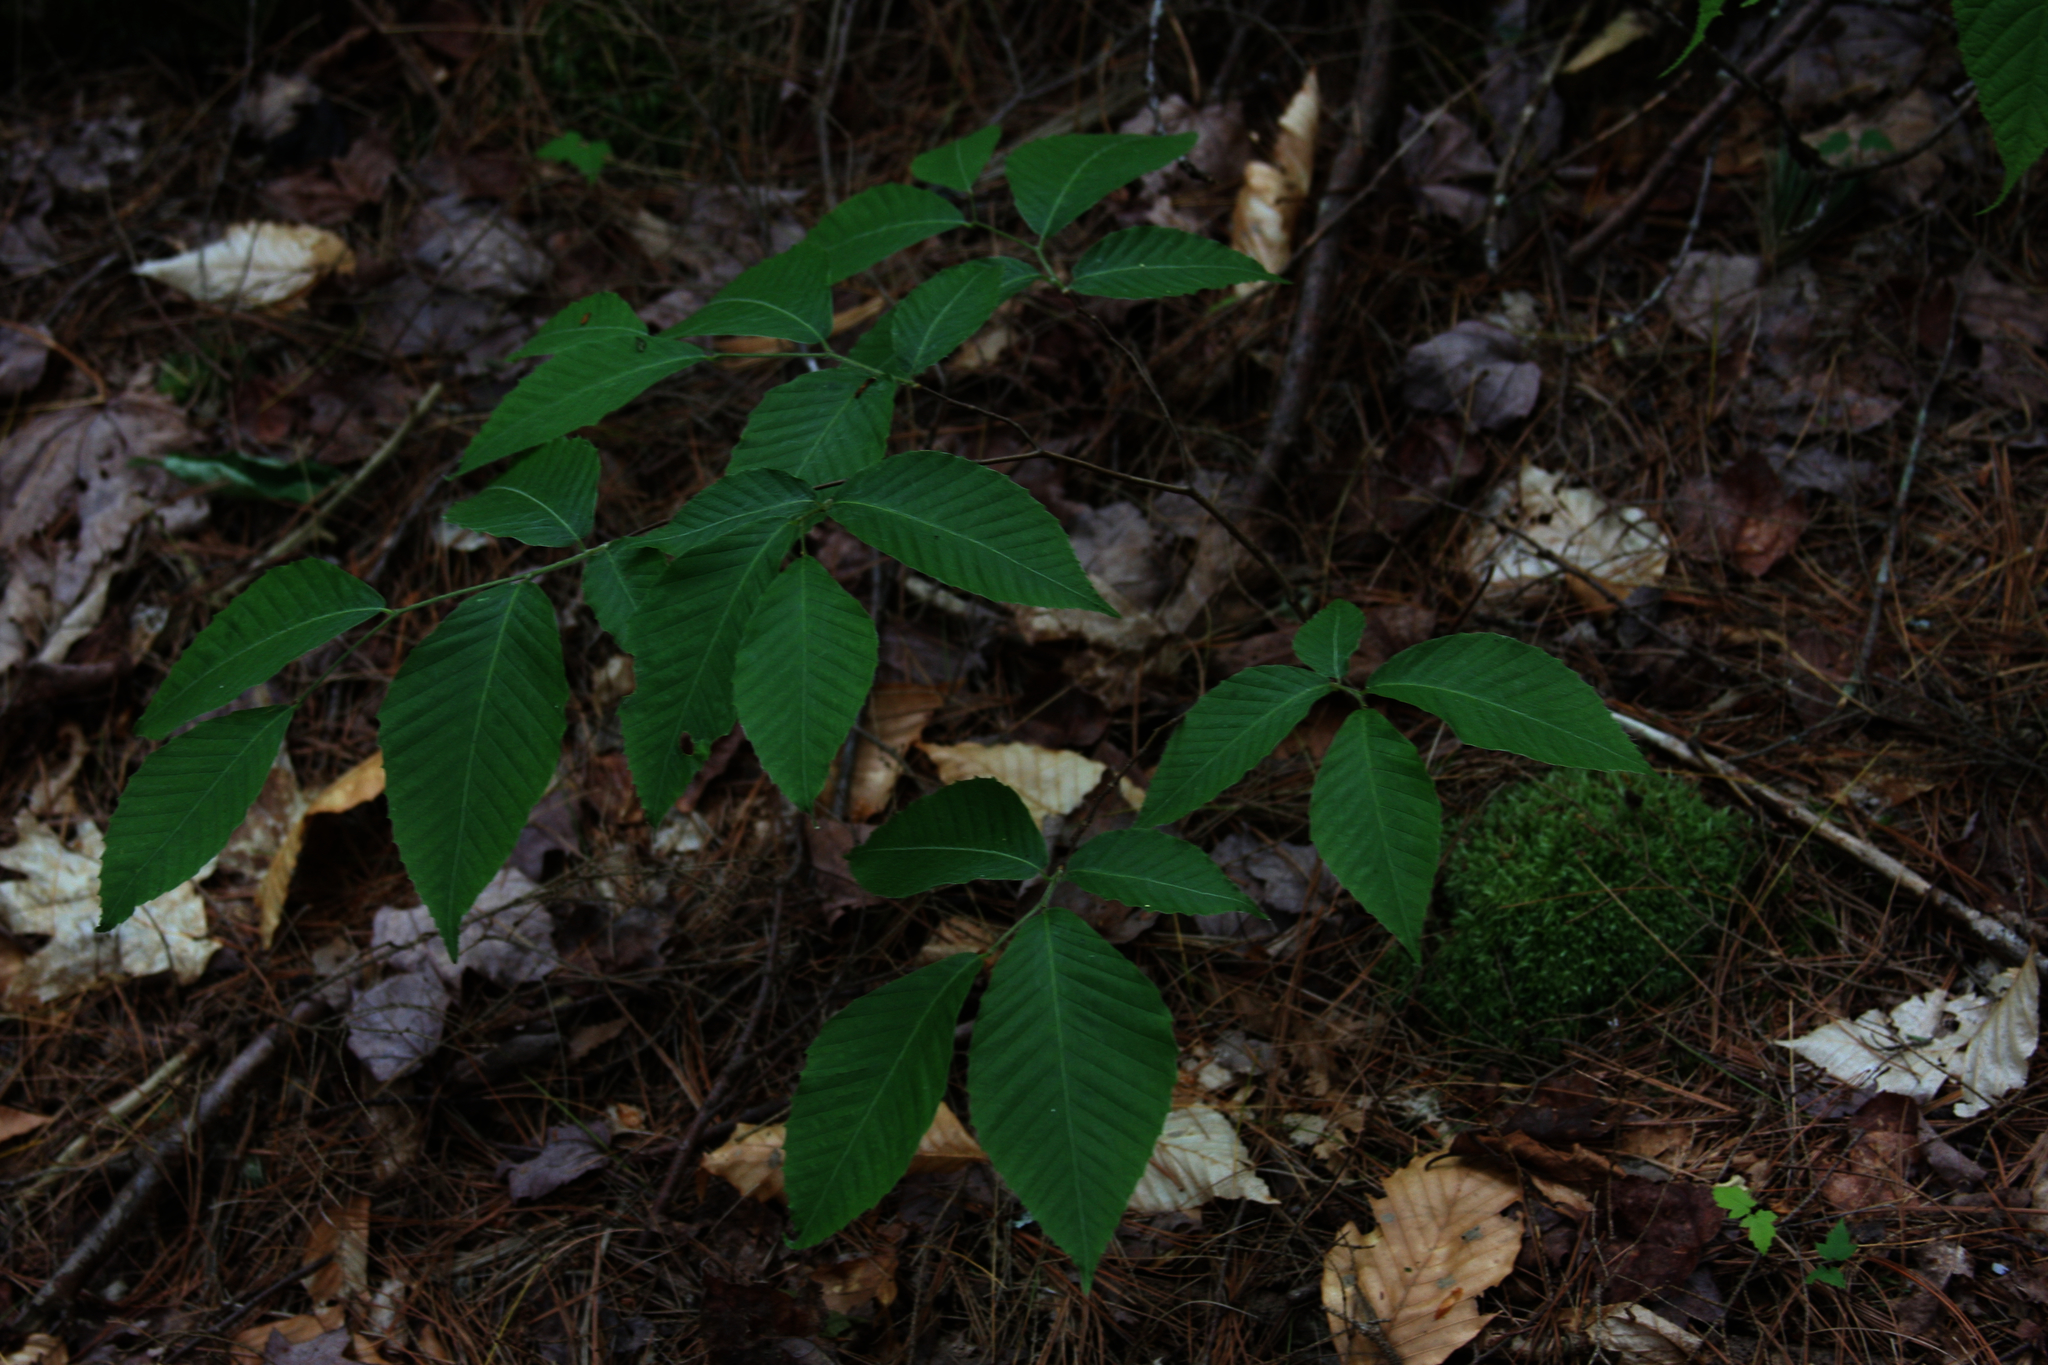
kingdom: Plantae
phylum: Tracheophyta
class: Magnoliopsida
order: Fagales
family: Fagaceae
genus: Fagus
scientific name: Fagus grandifolia
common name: American beech
